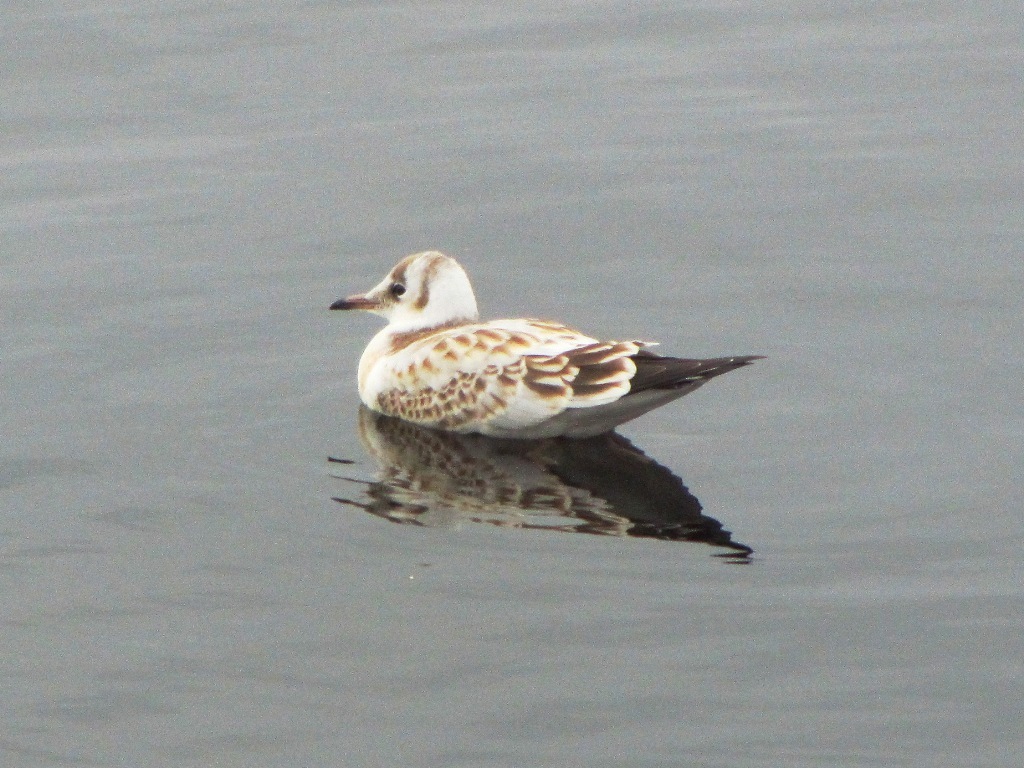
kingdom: Animalia
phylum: Chordata
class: Aves
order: Charadriiformes
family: Laridae
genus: Chroicocephalus
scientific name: Chroicocephalus ridibundus
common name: Black-headed gull
